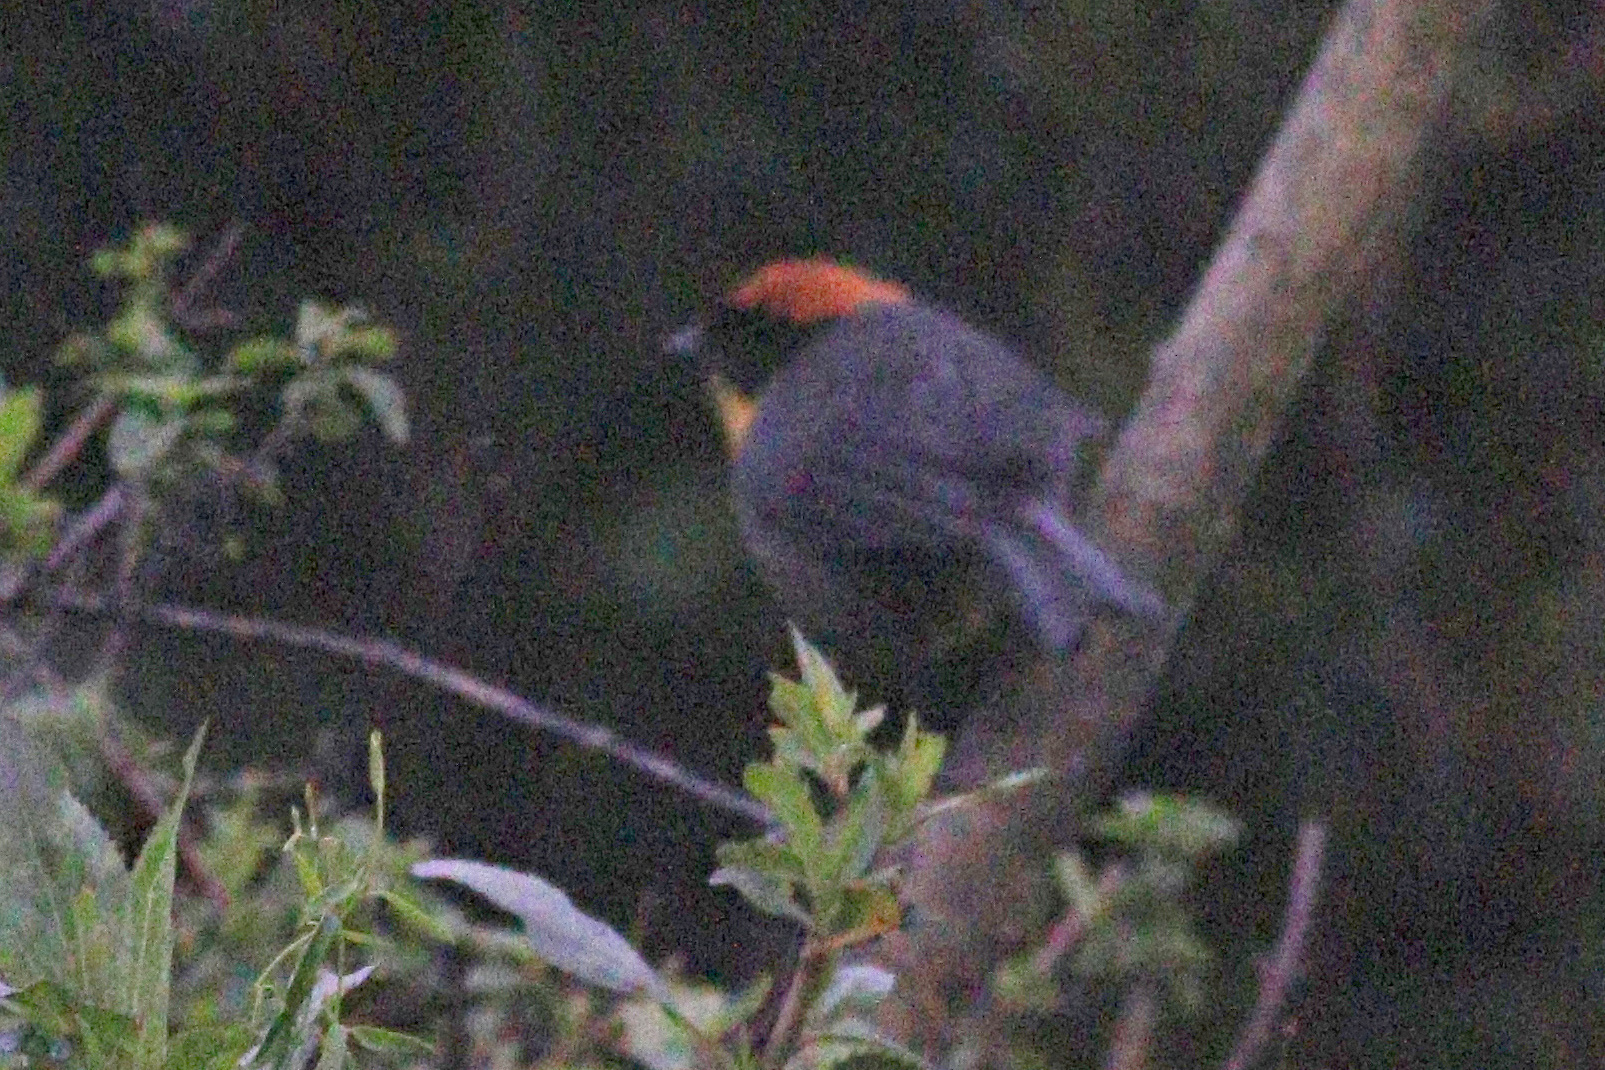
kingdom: Animalia
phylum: Chordata
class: Aves
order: Passeriformes
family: Passerellidae
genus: Atlapetes
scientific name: Atlapetes latinuchus
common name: Yellow-breasted brushfinch
